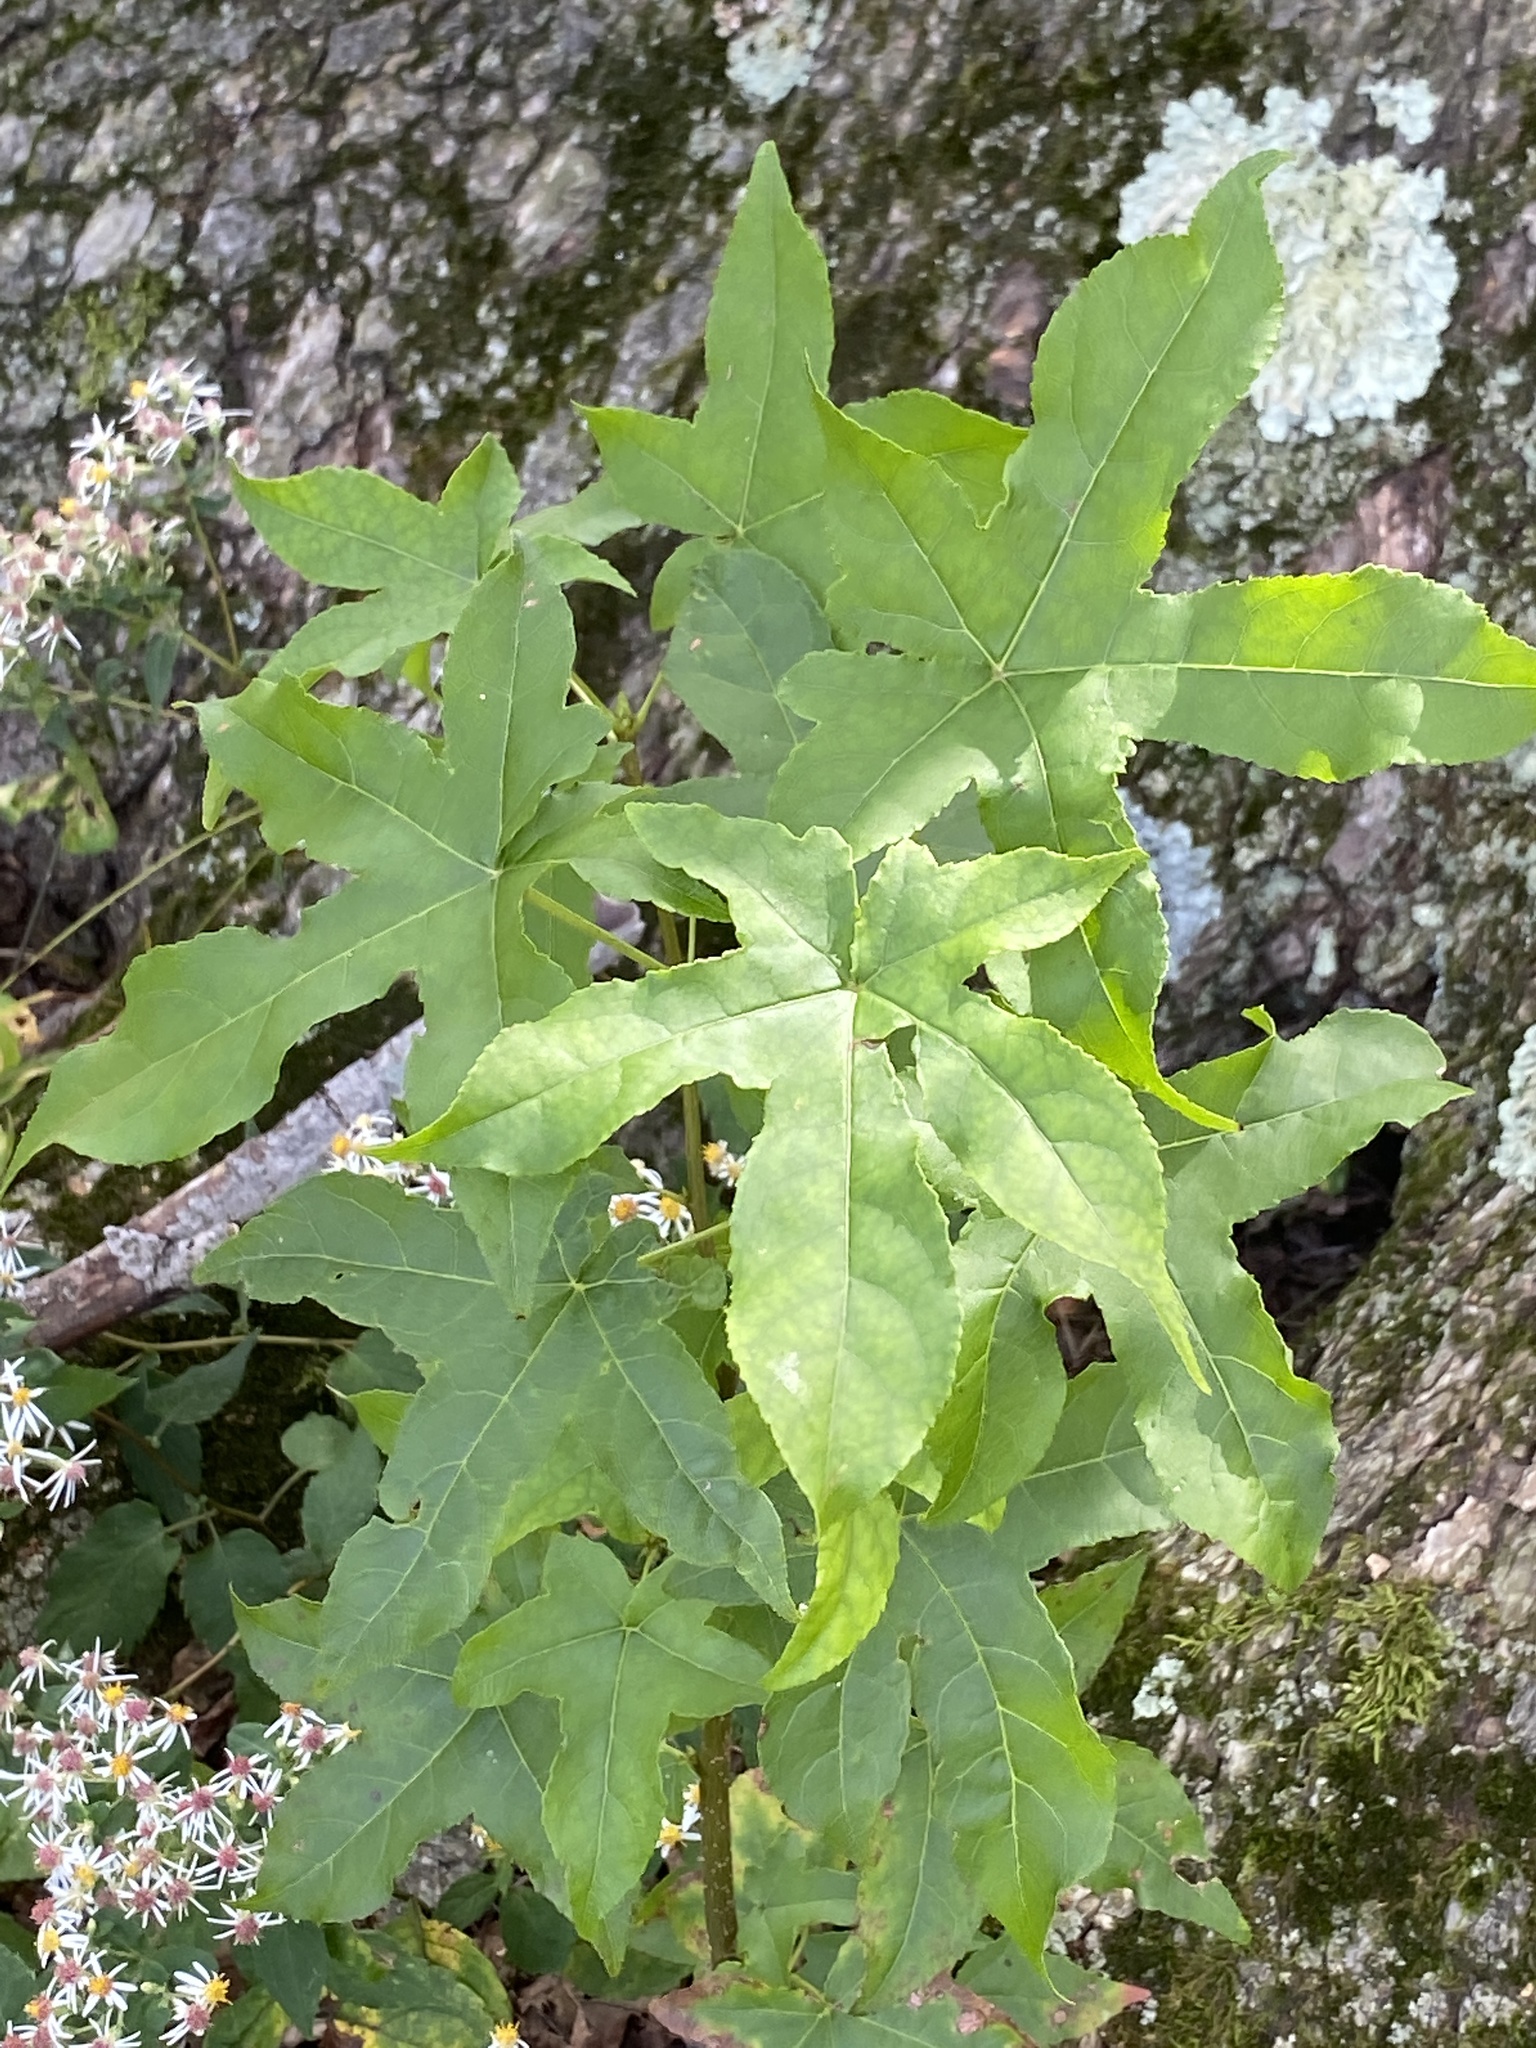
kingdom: Plantae
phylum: Tracheophyta
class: Magnoliopsida
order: Saxifragales
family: Altingiaceae
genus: Liquidambar
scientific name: Liquidambar styraciflua
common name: Sweet gum
